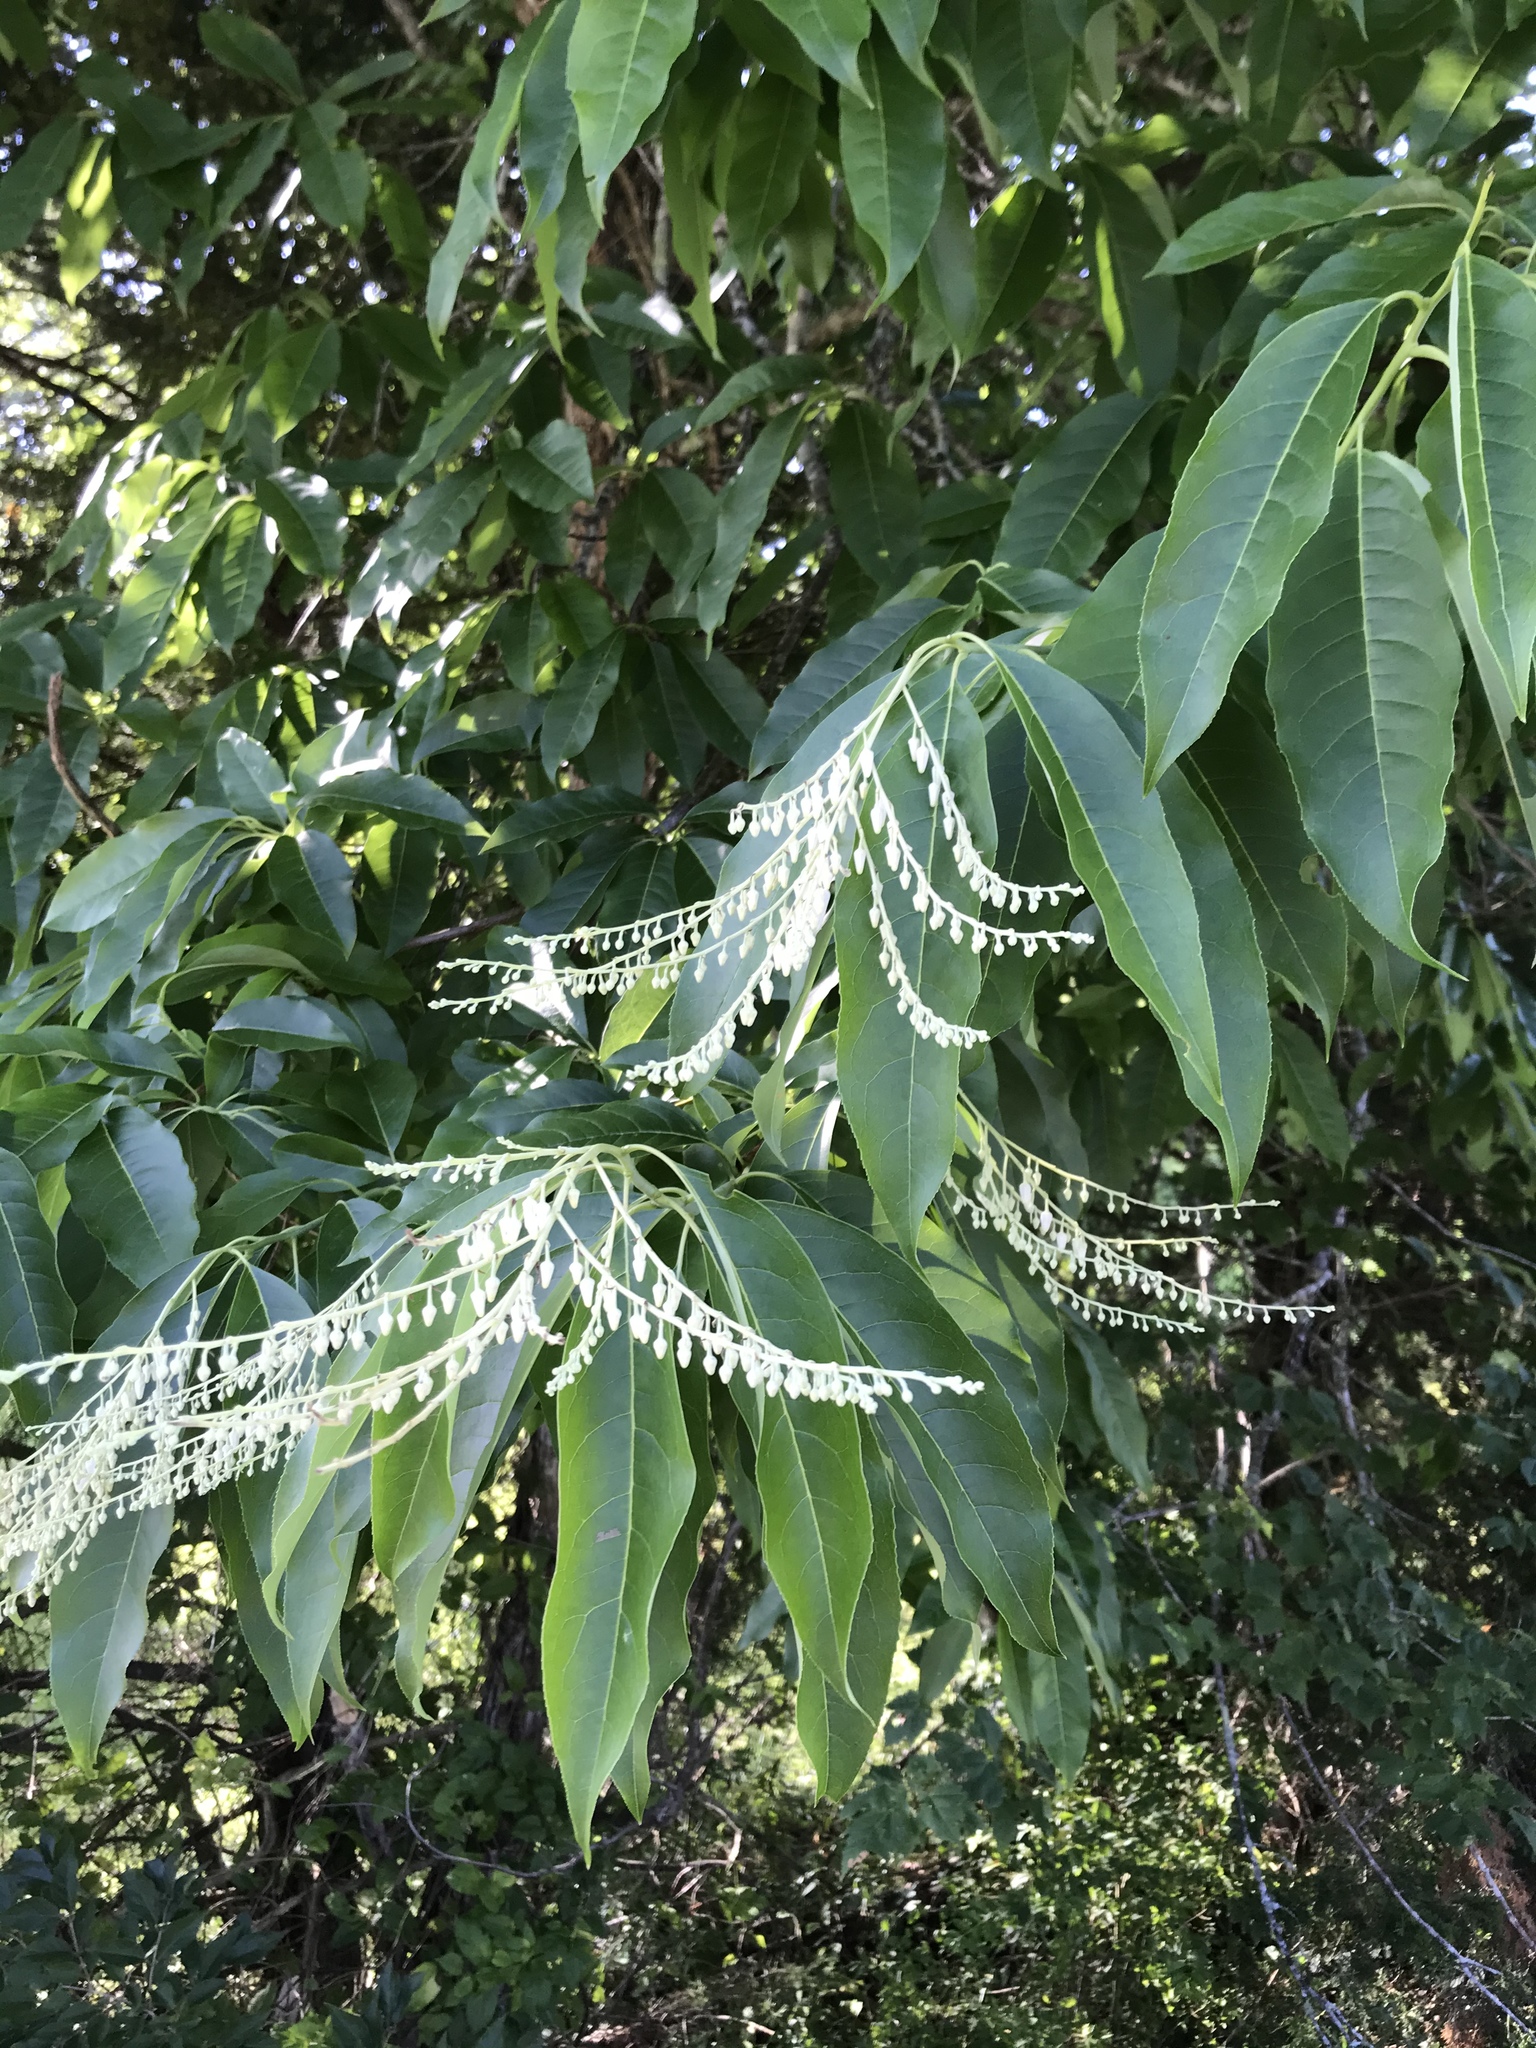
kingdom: Plantae
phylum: Tracheophyta
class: Magnoliopsida
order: Ericales
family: Ericaceae
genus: Oxydendrum
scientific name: Oxydendrum arboreum
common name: Sourwood
